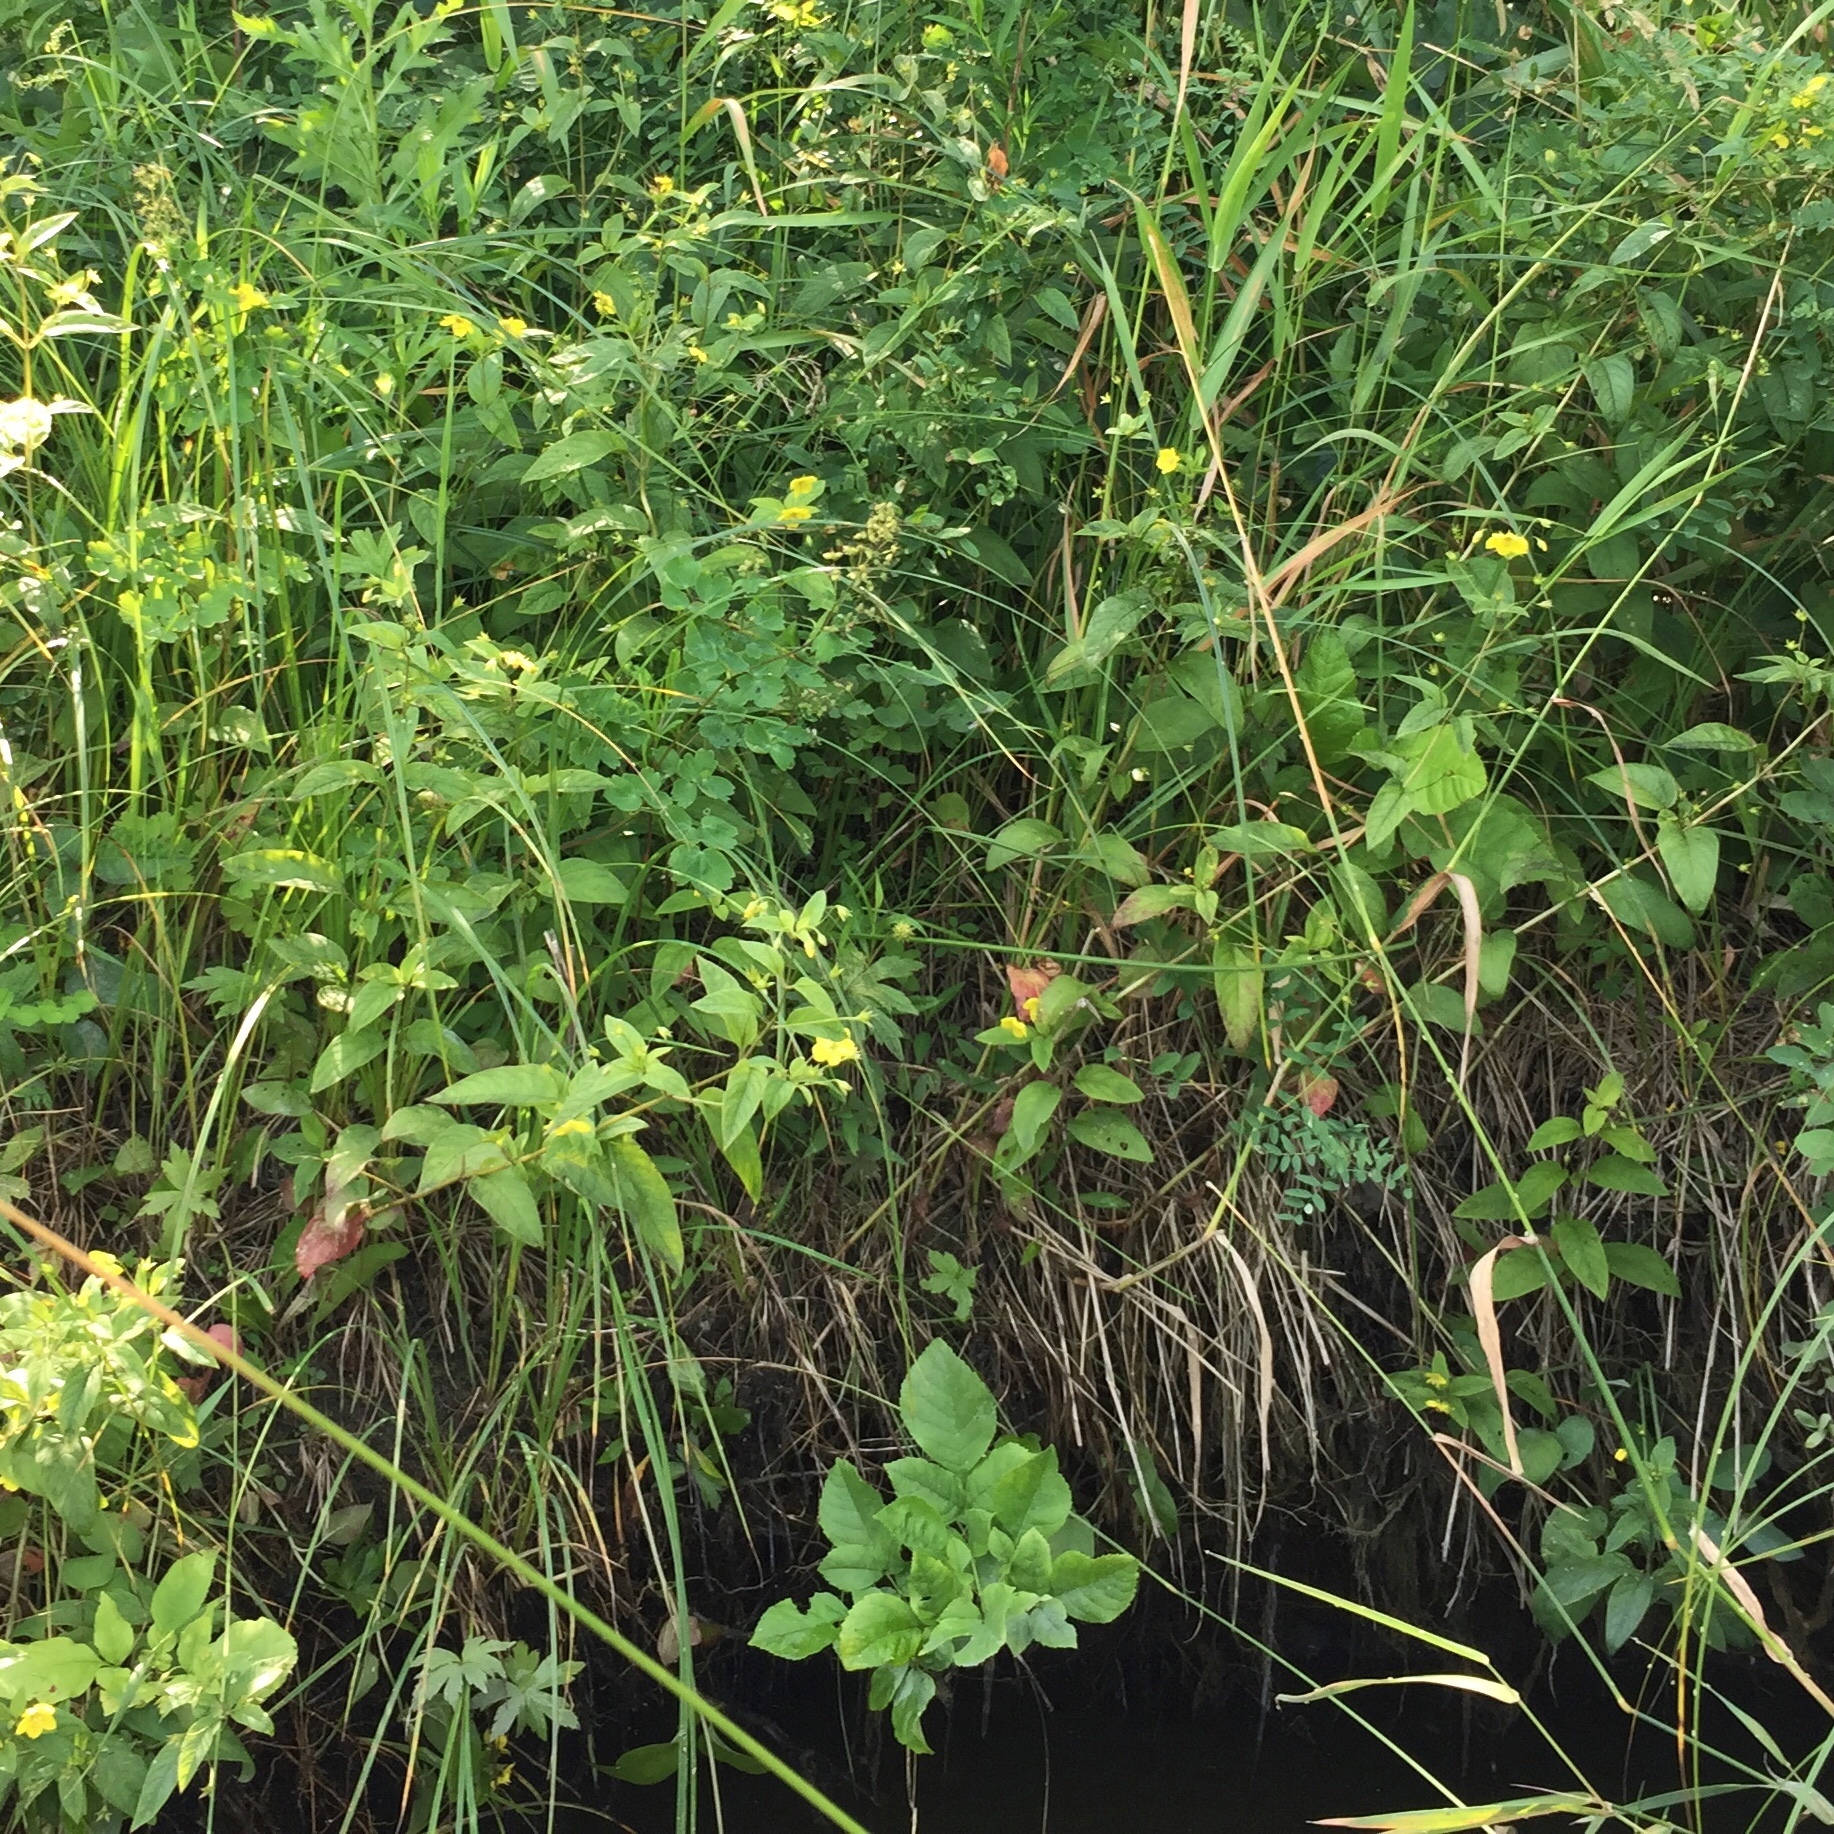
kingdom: Plantae
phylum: Tracheophyta
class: Magnoliopsida
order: Ericales
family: Primulaceae
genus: Lysimachia
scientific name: Lysimachia ciliata
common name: Fringed loosestrife
